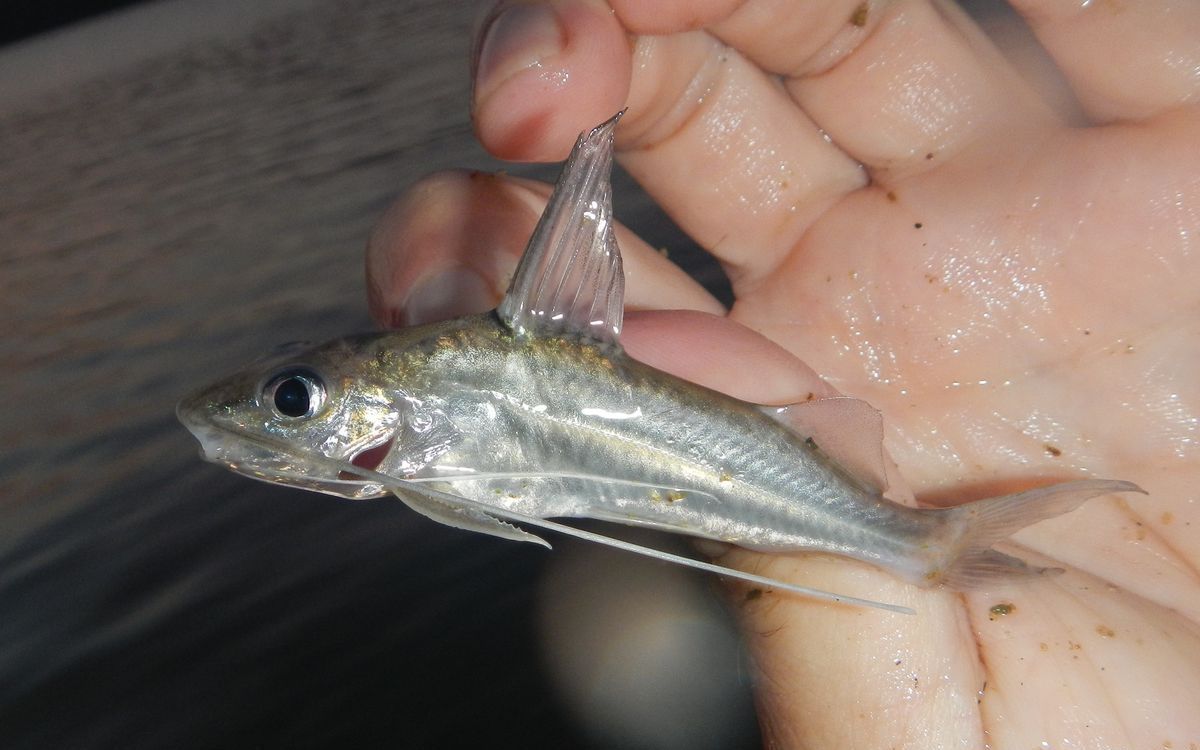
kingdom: Animalia
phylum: Chordata
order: Siluriformes
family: Pimelodidae
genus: Pimelodus
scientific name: Pimelodus blochii
